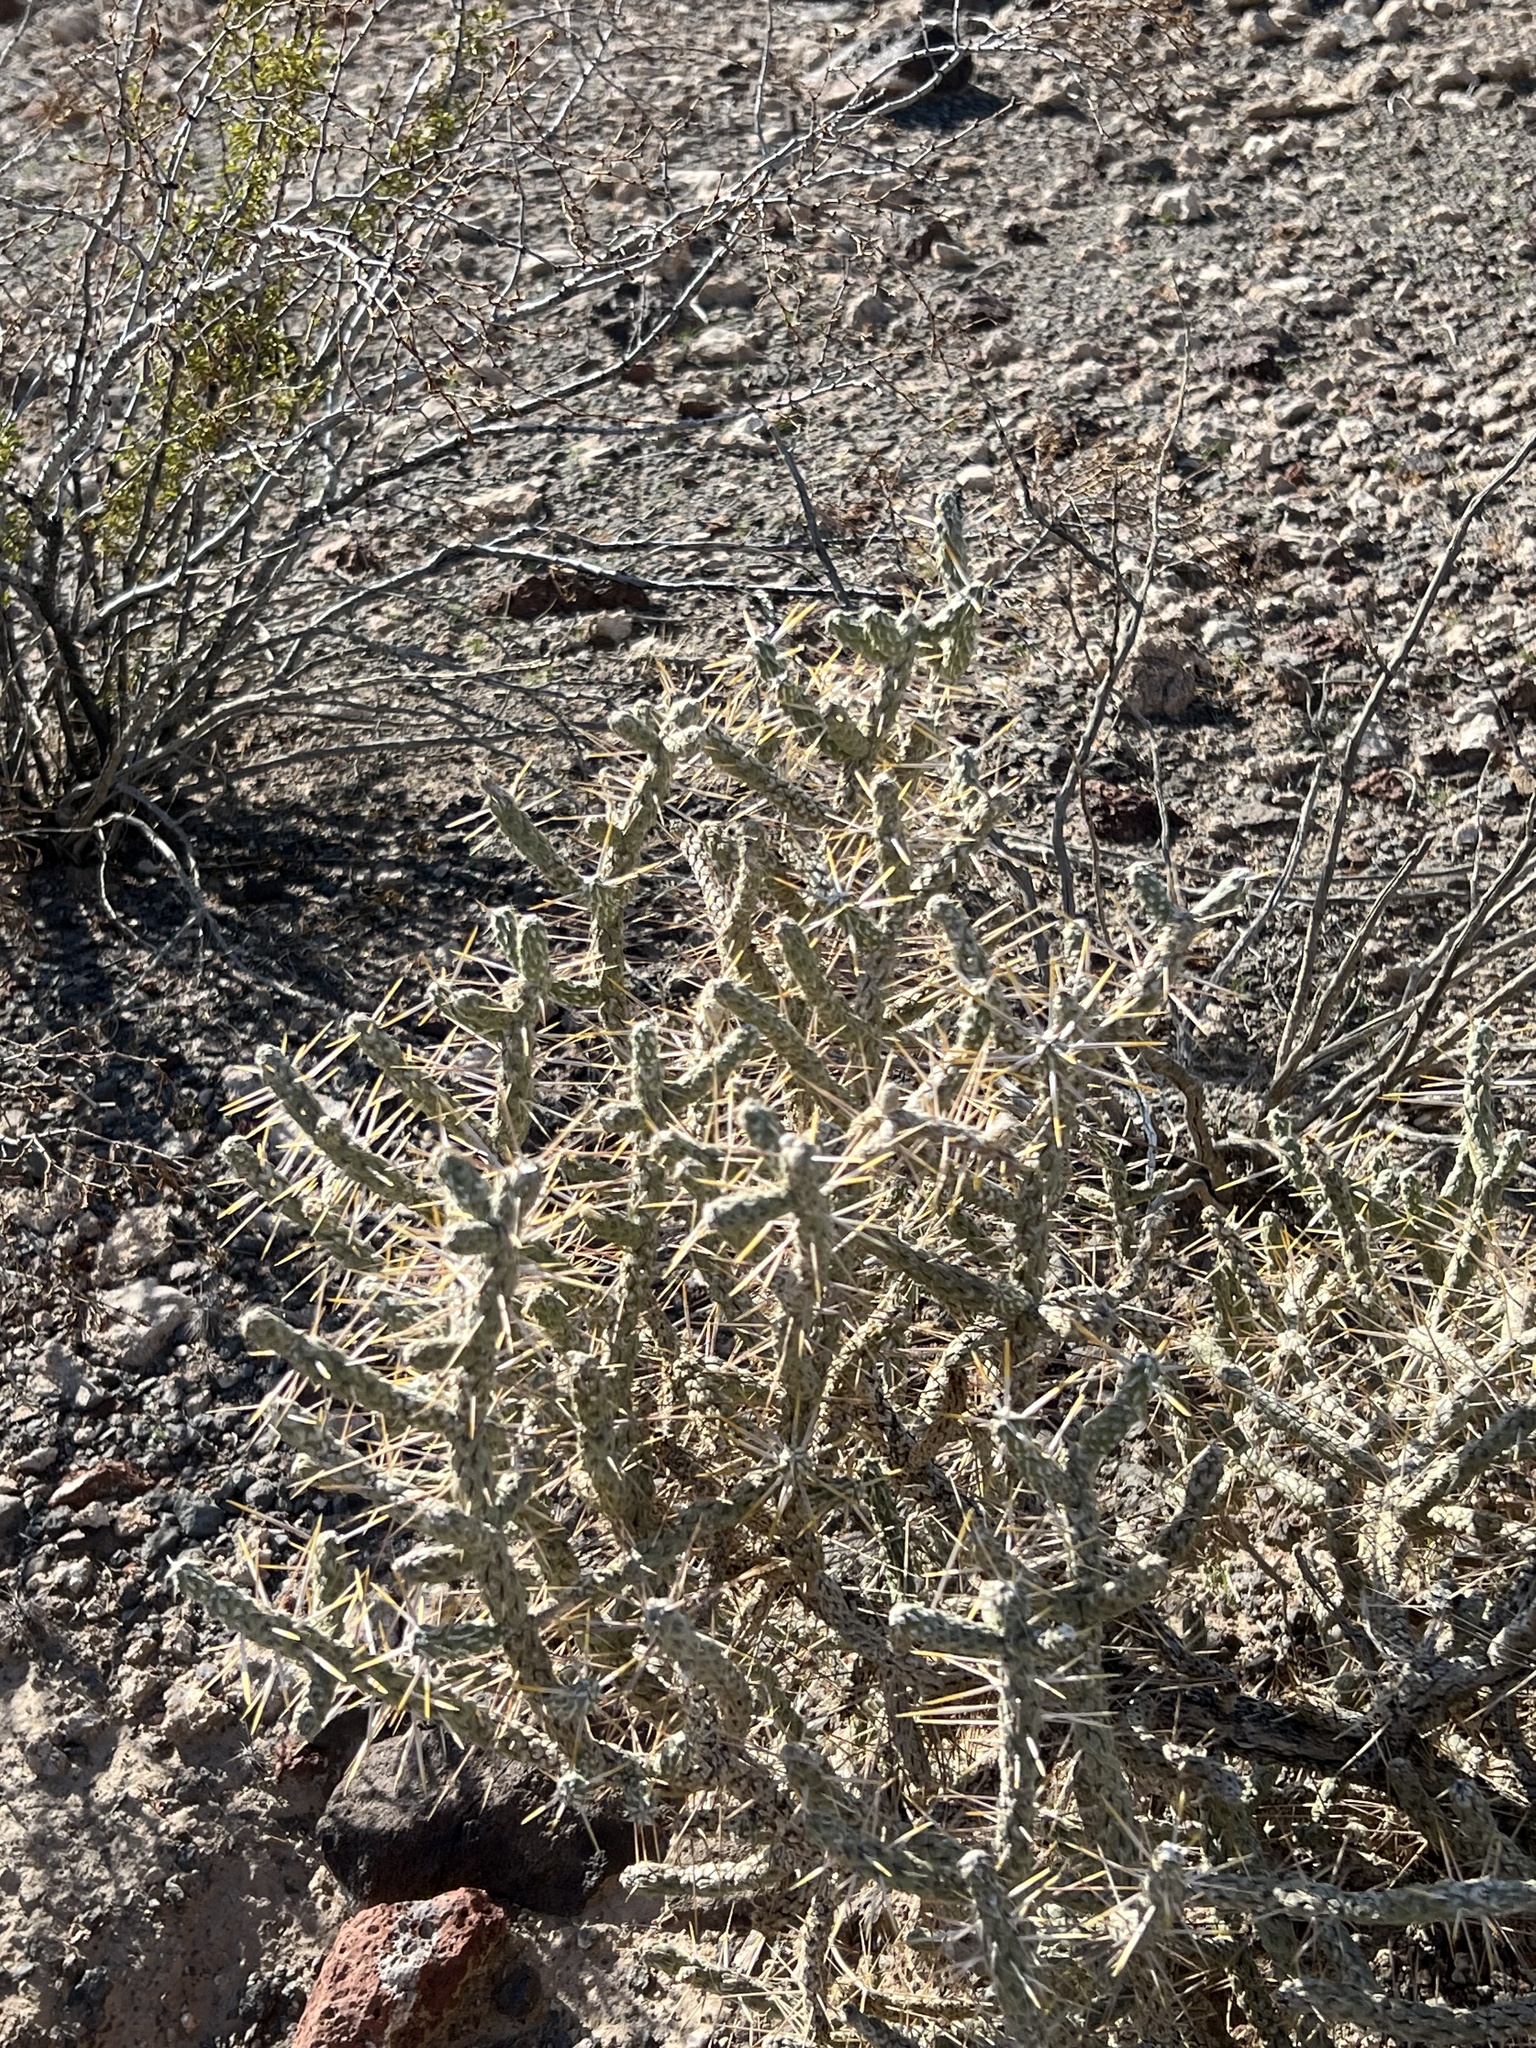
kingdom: Plantae
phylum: Tracheophyta
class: Magnoliopsida
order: Caryophyllales
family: Cactaceae
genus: Cylindropuntia
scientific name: Cylindropuntia ramosissima
